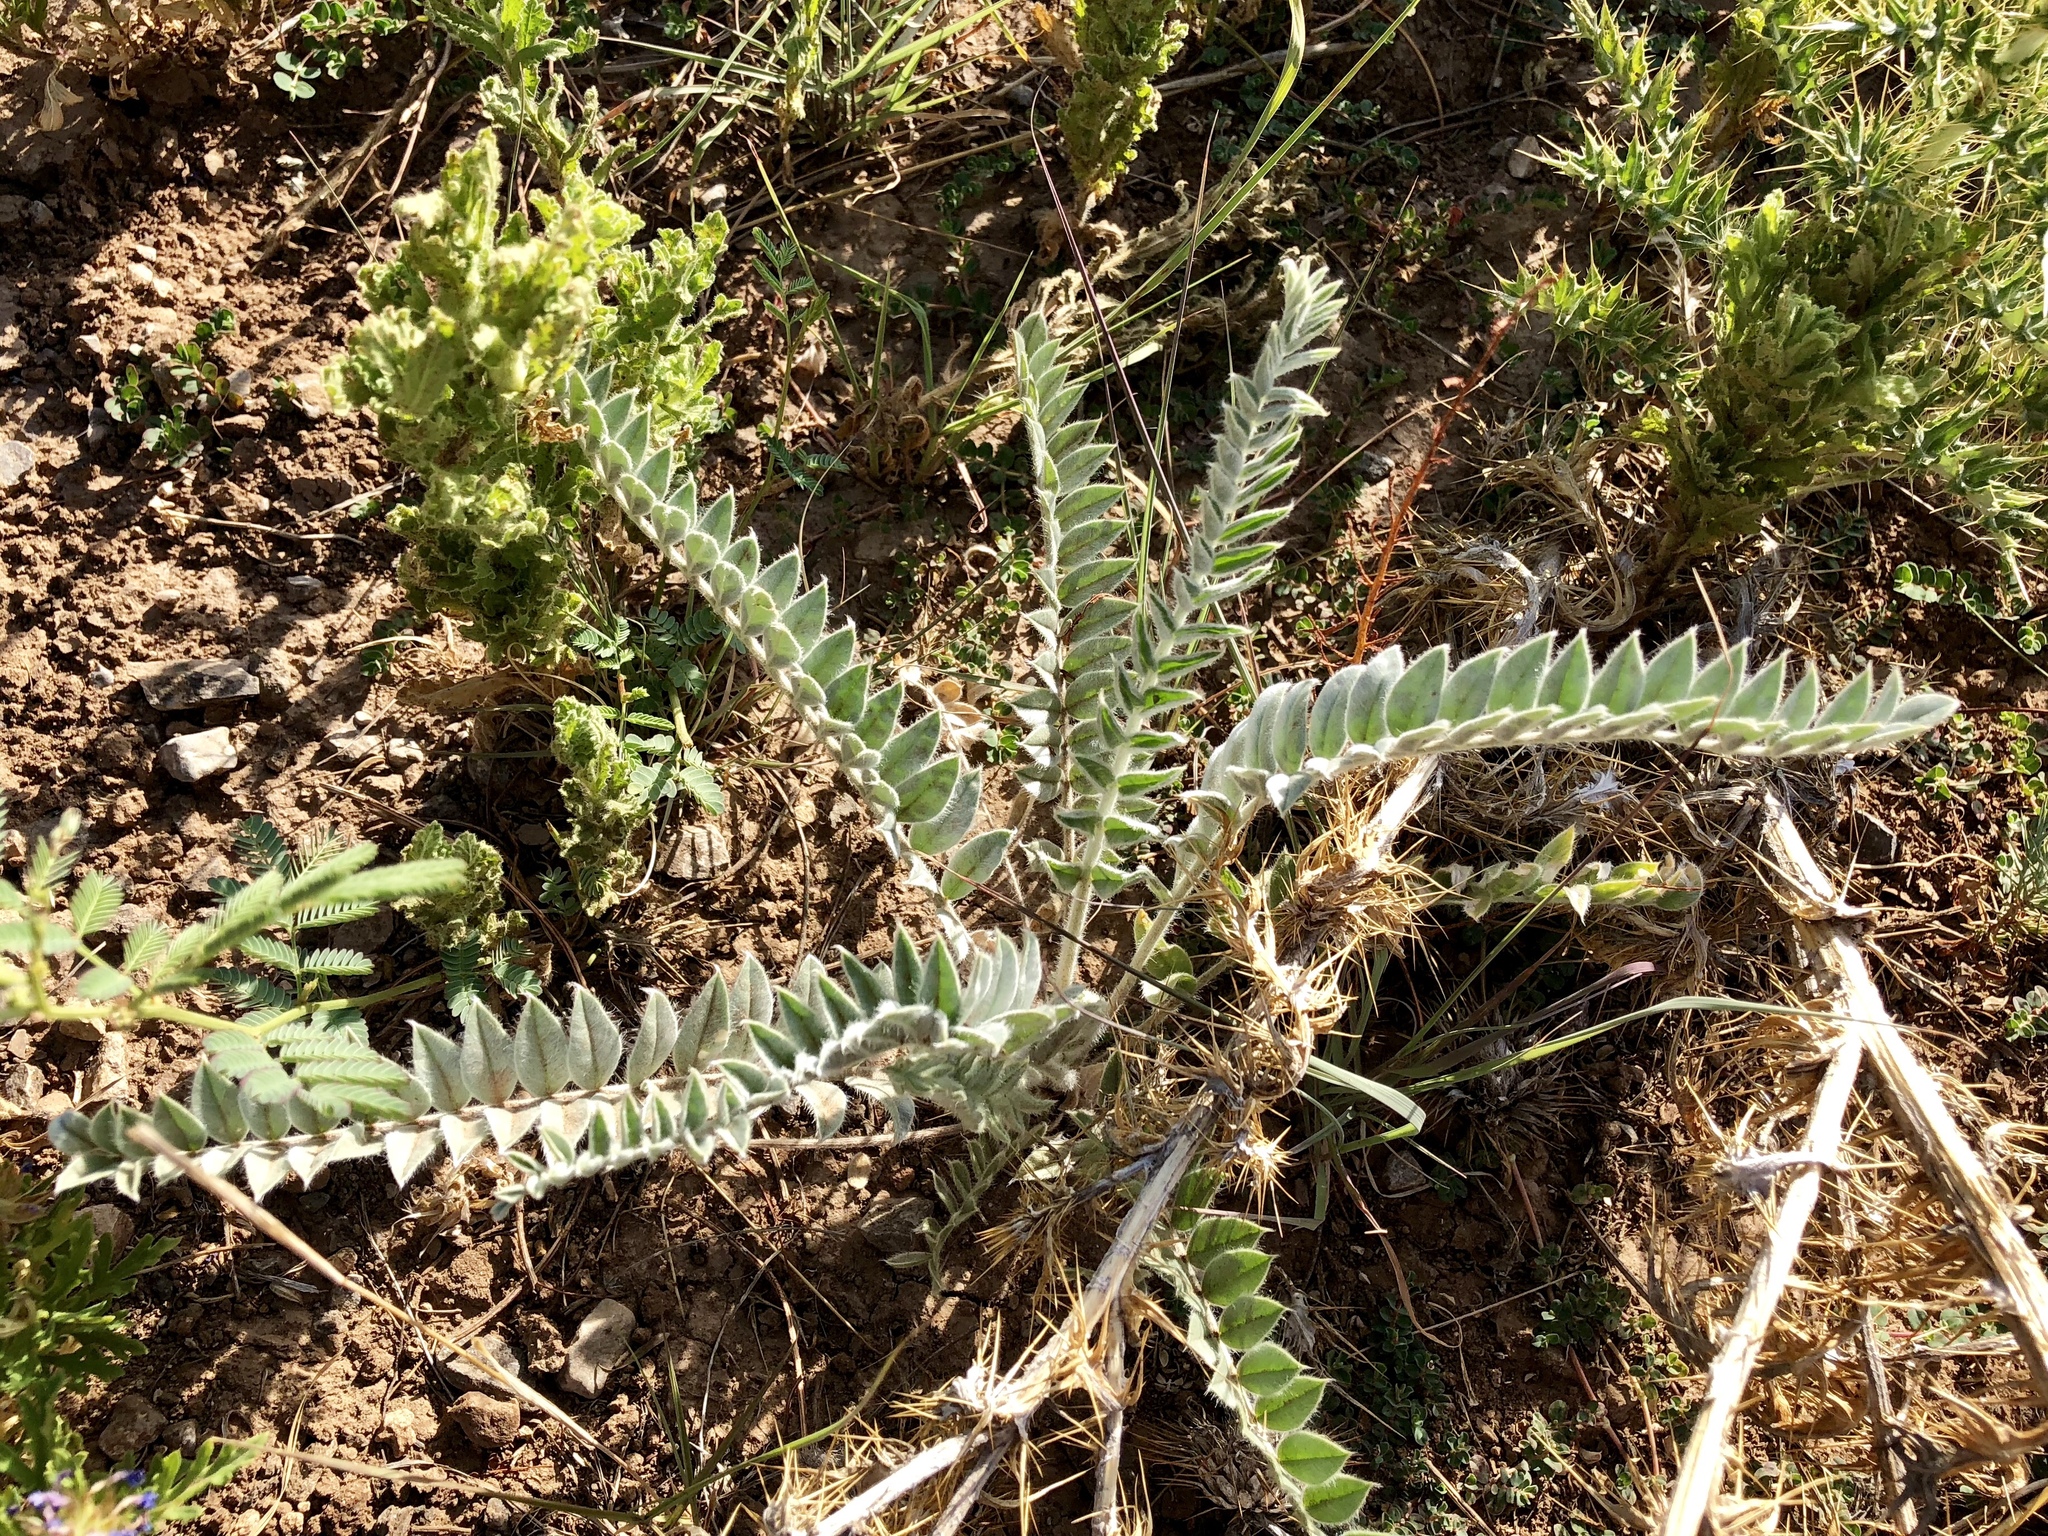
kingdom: Plantae
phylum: Tracheophyta
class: Magnoliopsida
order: Fabales
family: Fabaceae
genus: Astragalus
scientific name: Astragalus mollissimus
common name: Woolly locoweed
